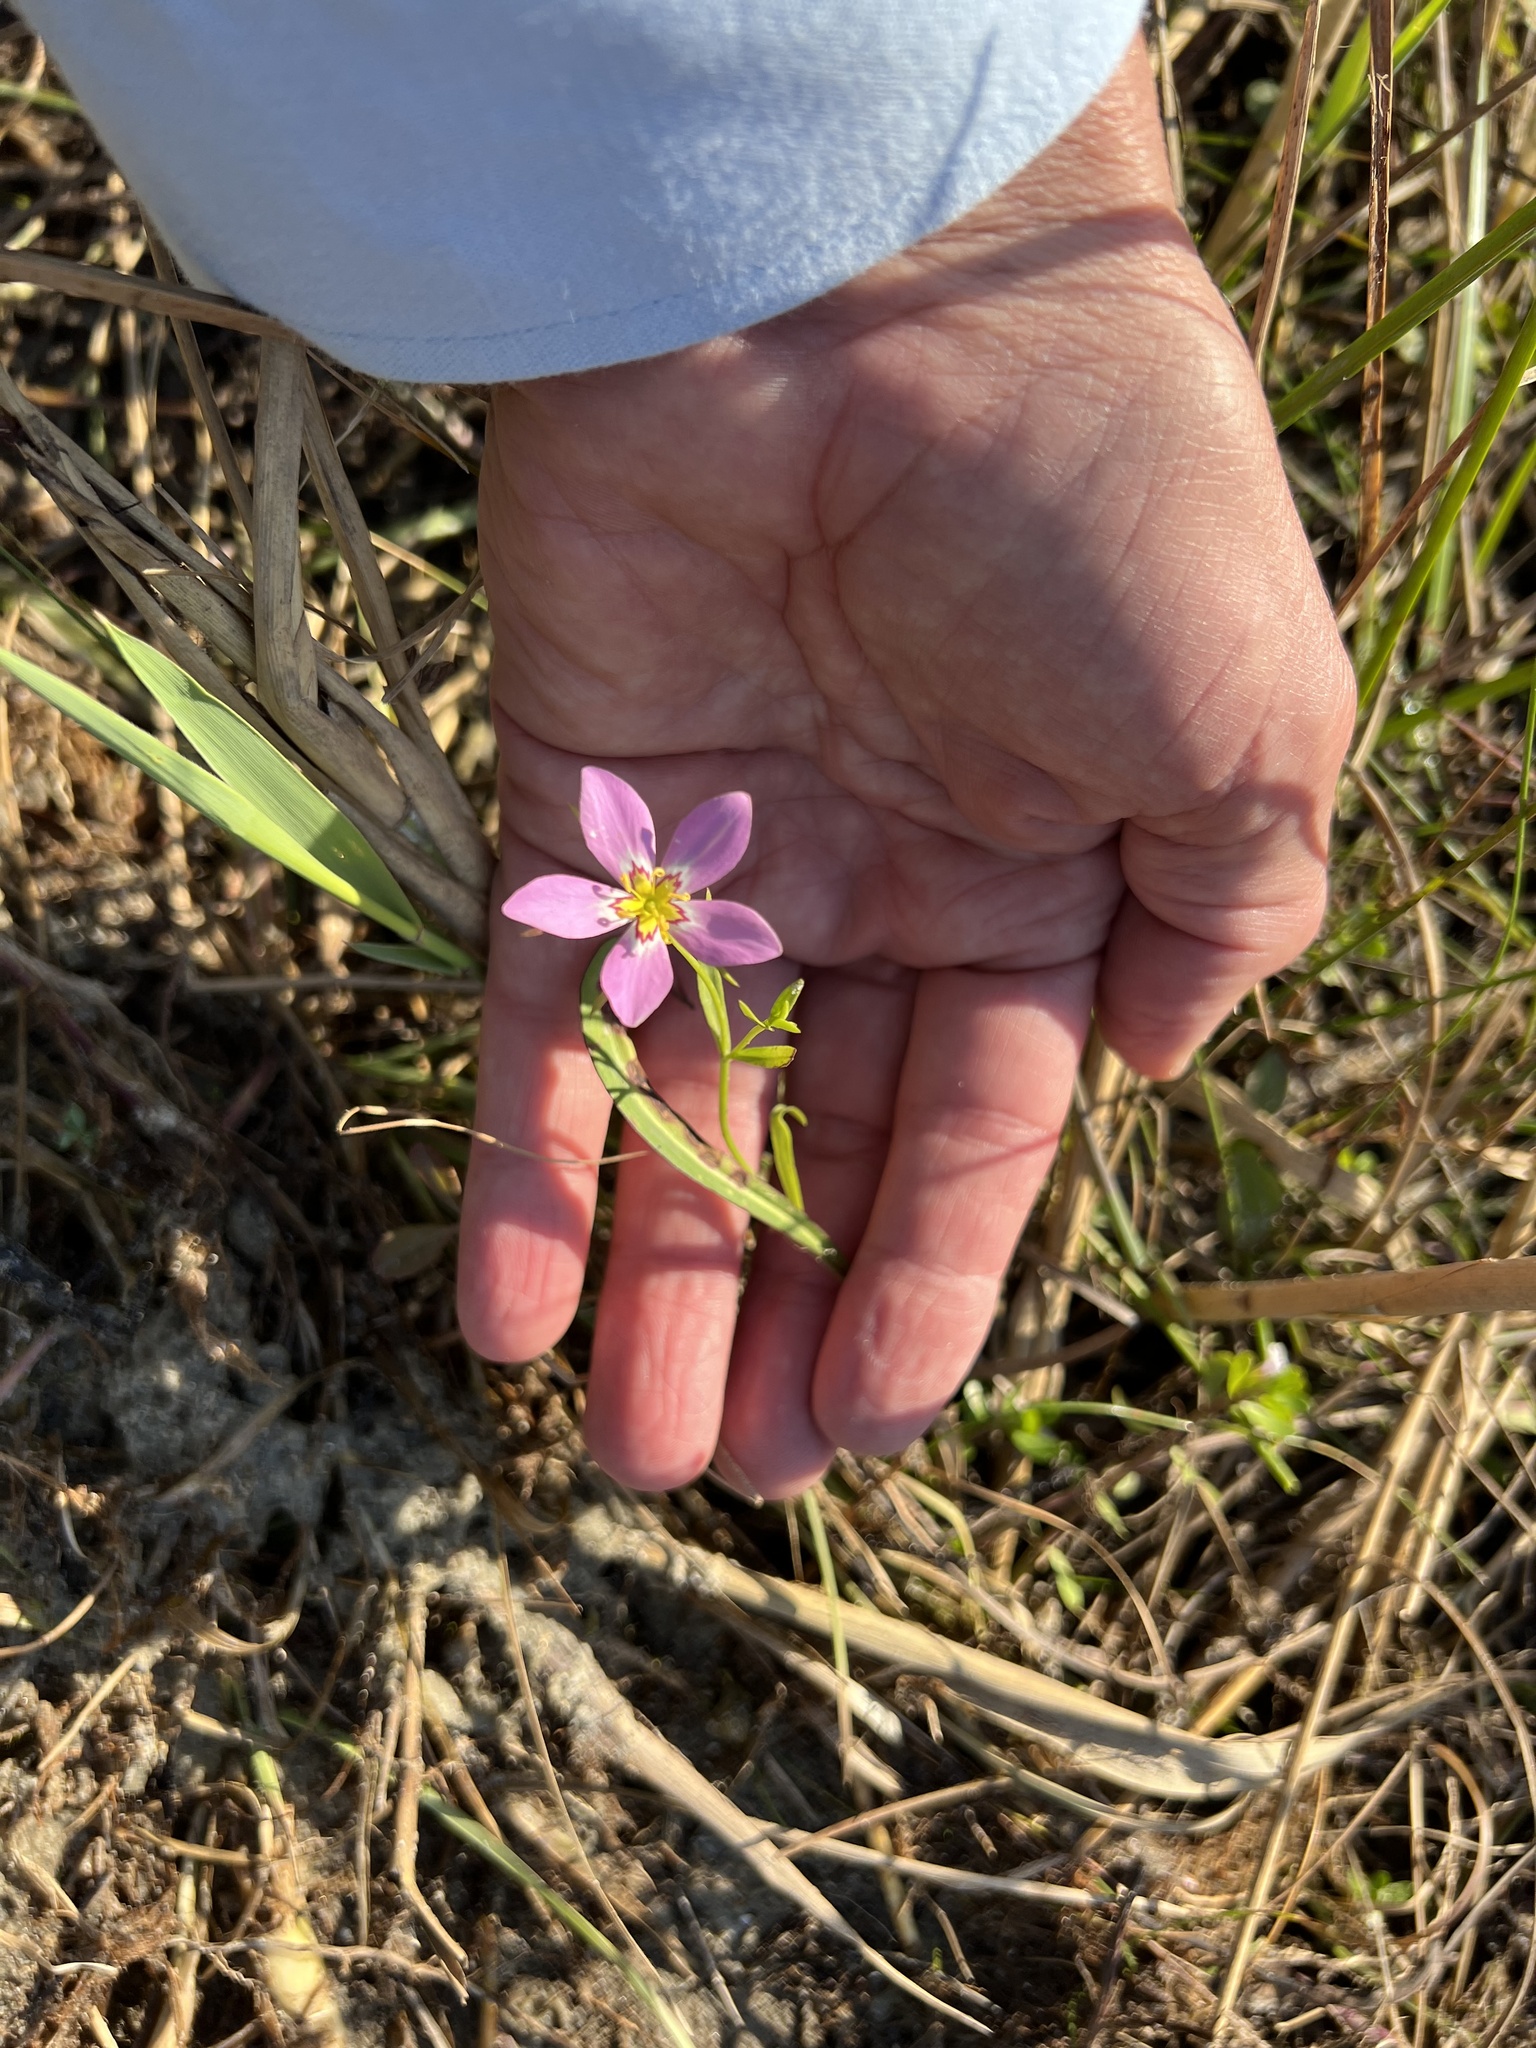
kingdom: Plantae
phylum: Tracheophyta
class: Magnoliopsida
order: Gentianales
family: Gentianaceae
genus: Sabatia
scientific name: Sabatia stellaris
